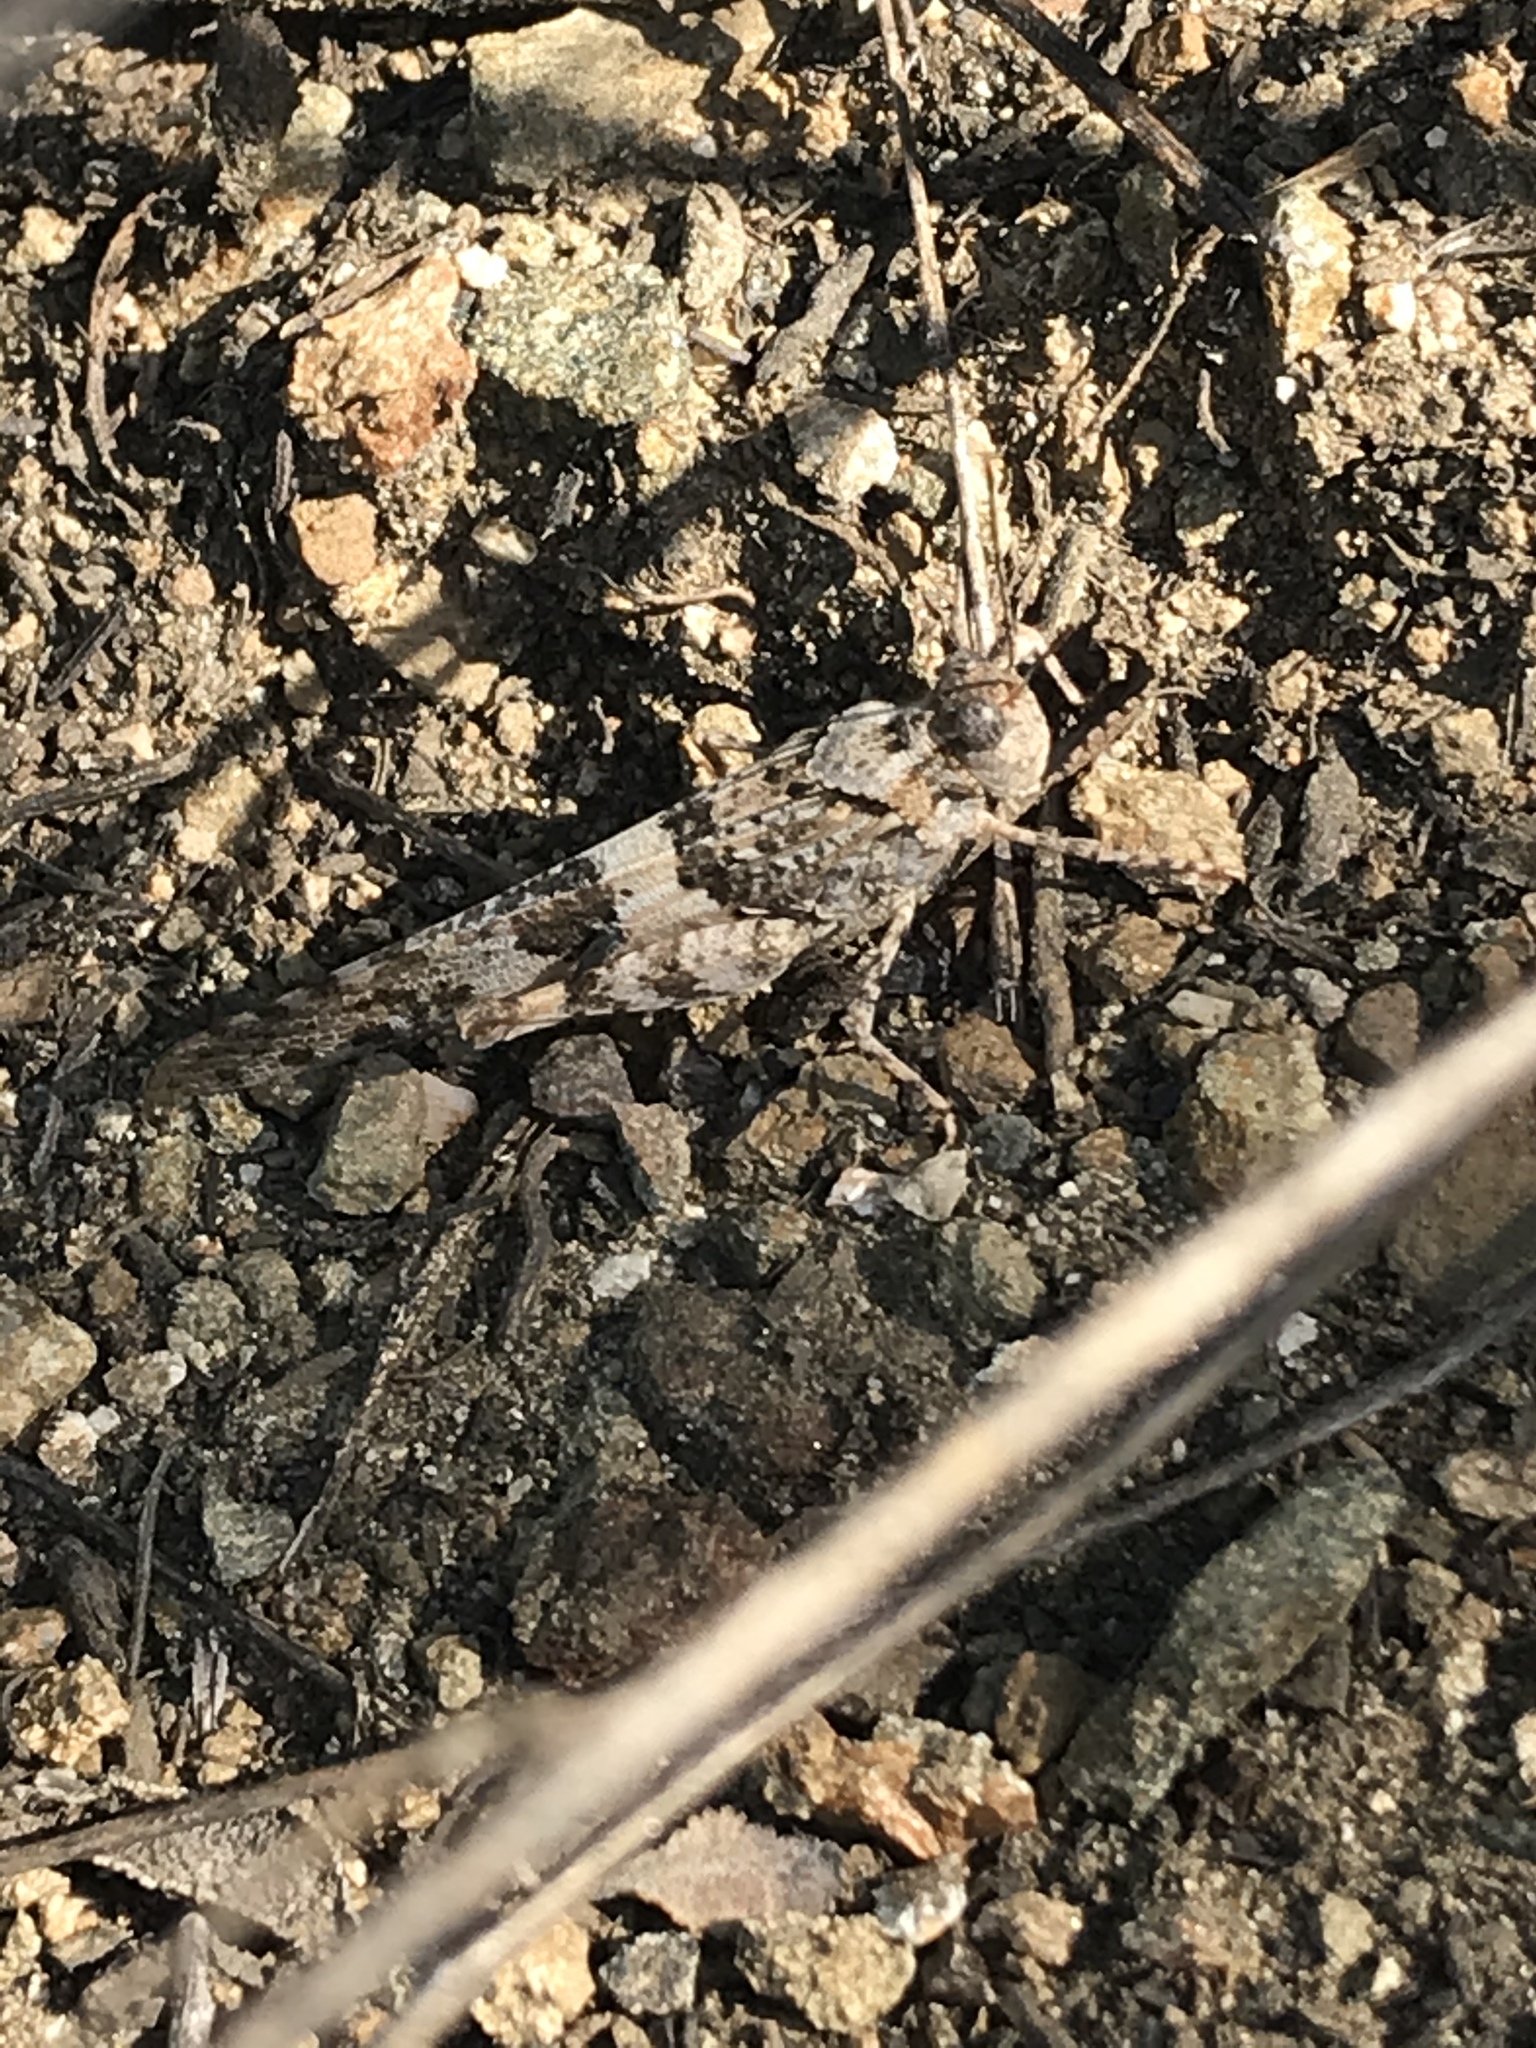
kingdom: Animalia
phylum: Arthropoda
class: Insecta
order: Orthoptera
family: Acrididae
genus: Trimerotropis
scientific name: Trimerotropis pallidipennis
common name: Pallid-winged grasshopper
